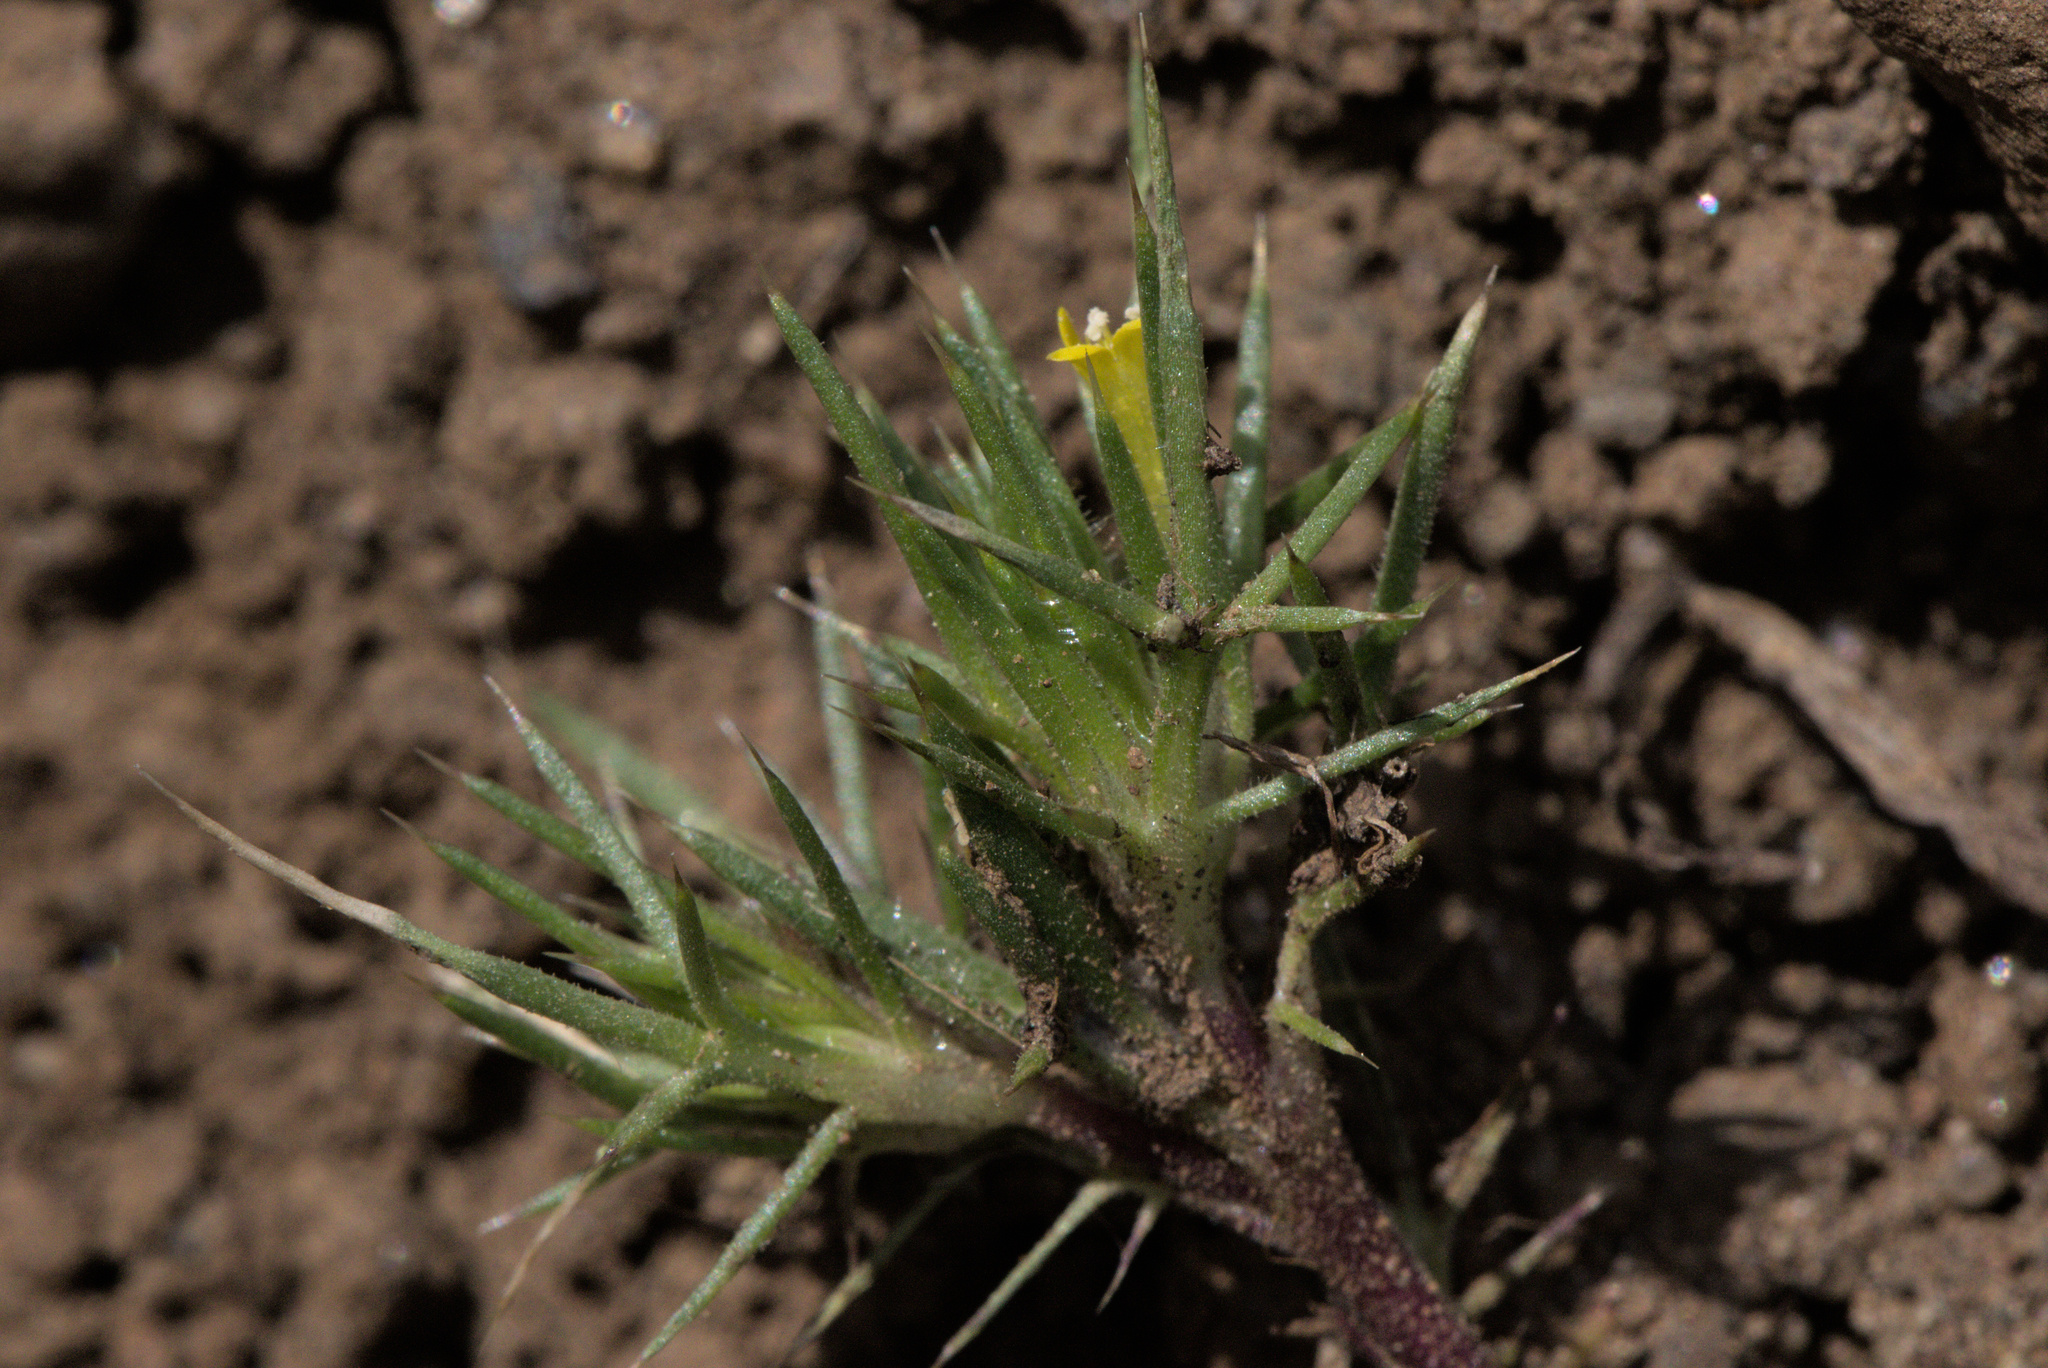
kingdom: Plantae
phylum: Tracheophyta
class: Magnoliopsida
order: Ericales
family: Polemoniaceae
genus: Navarretia
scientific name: Navarretia breweri
